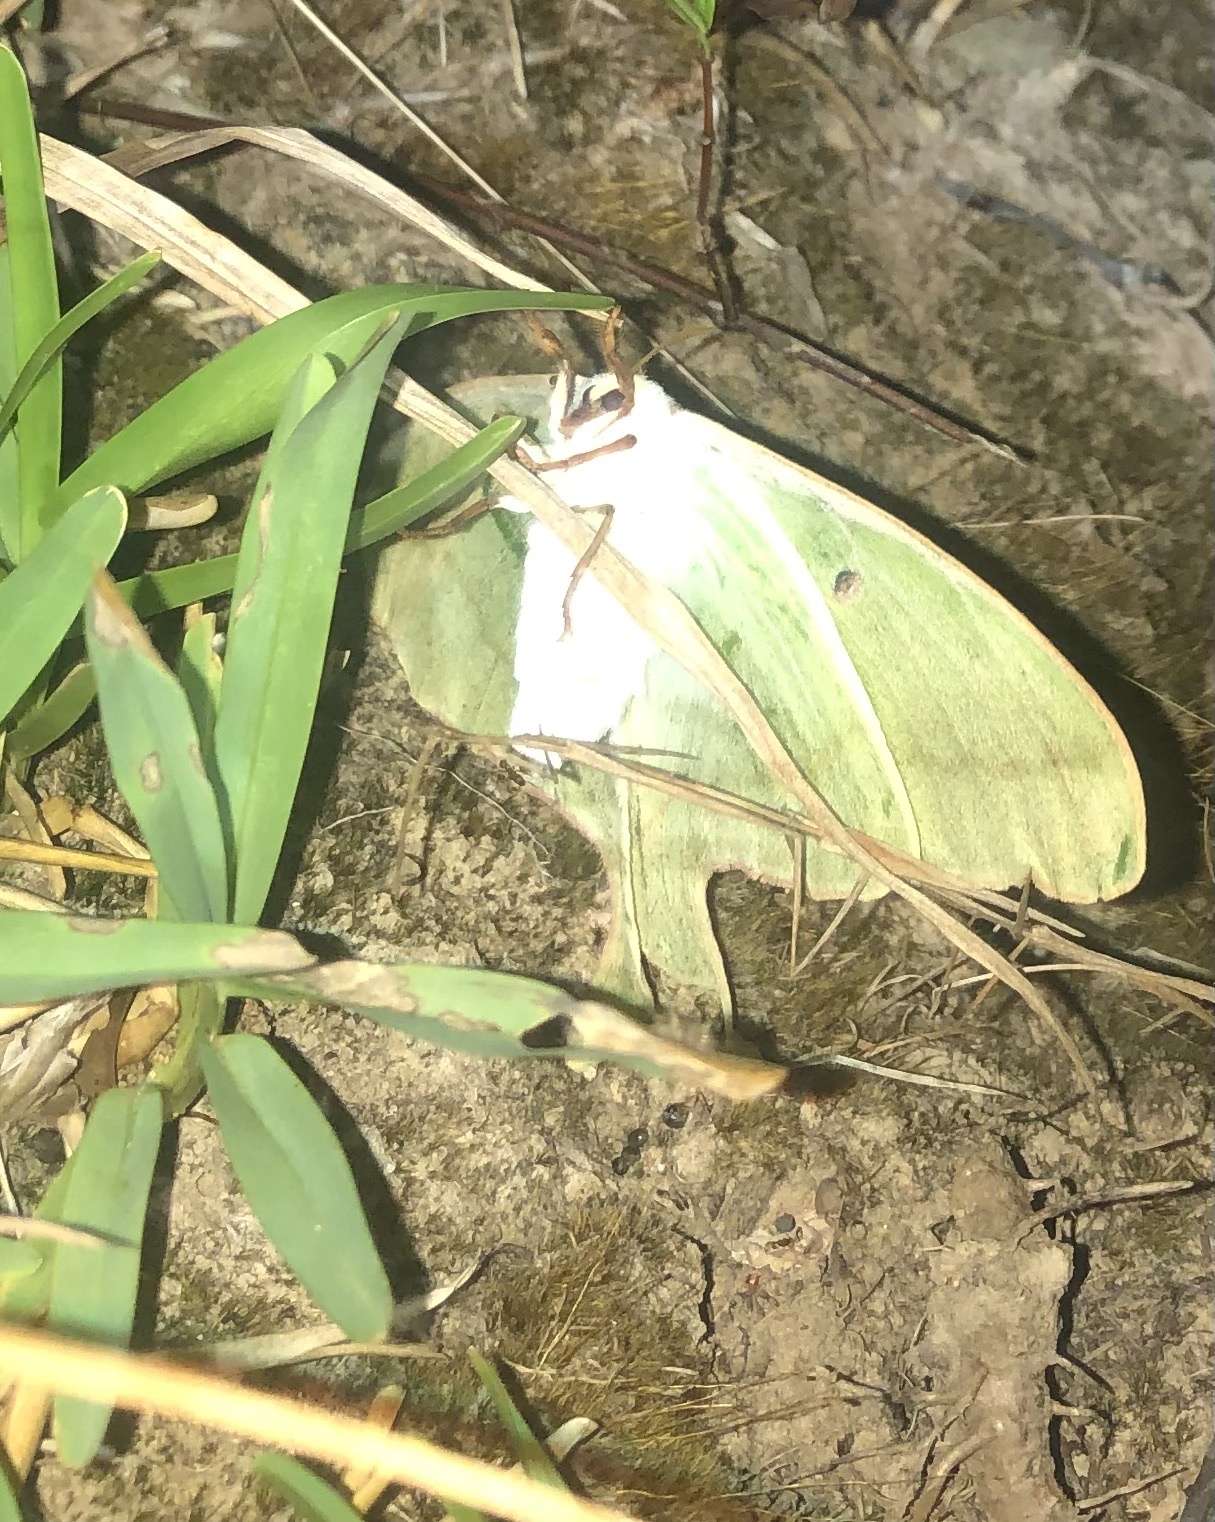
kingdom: Animalia
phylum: Arthropoda
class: Insecta
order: Lepidoptera
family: Saturniidae
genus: Actias
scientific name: Actias luna
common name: Luna moth
